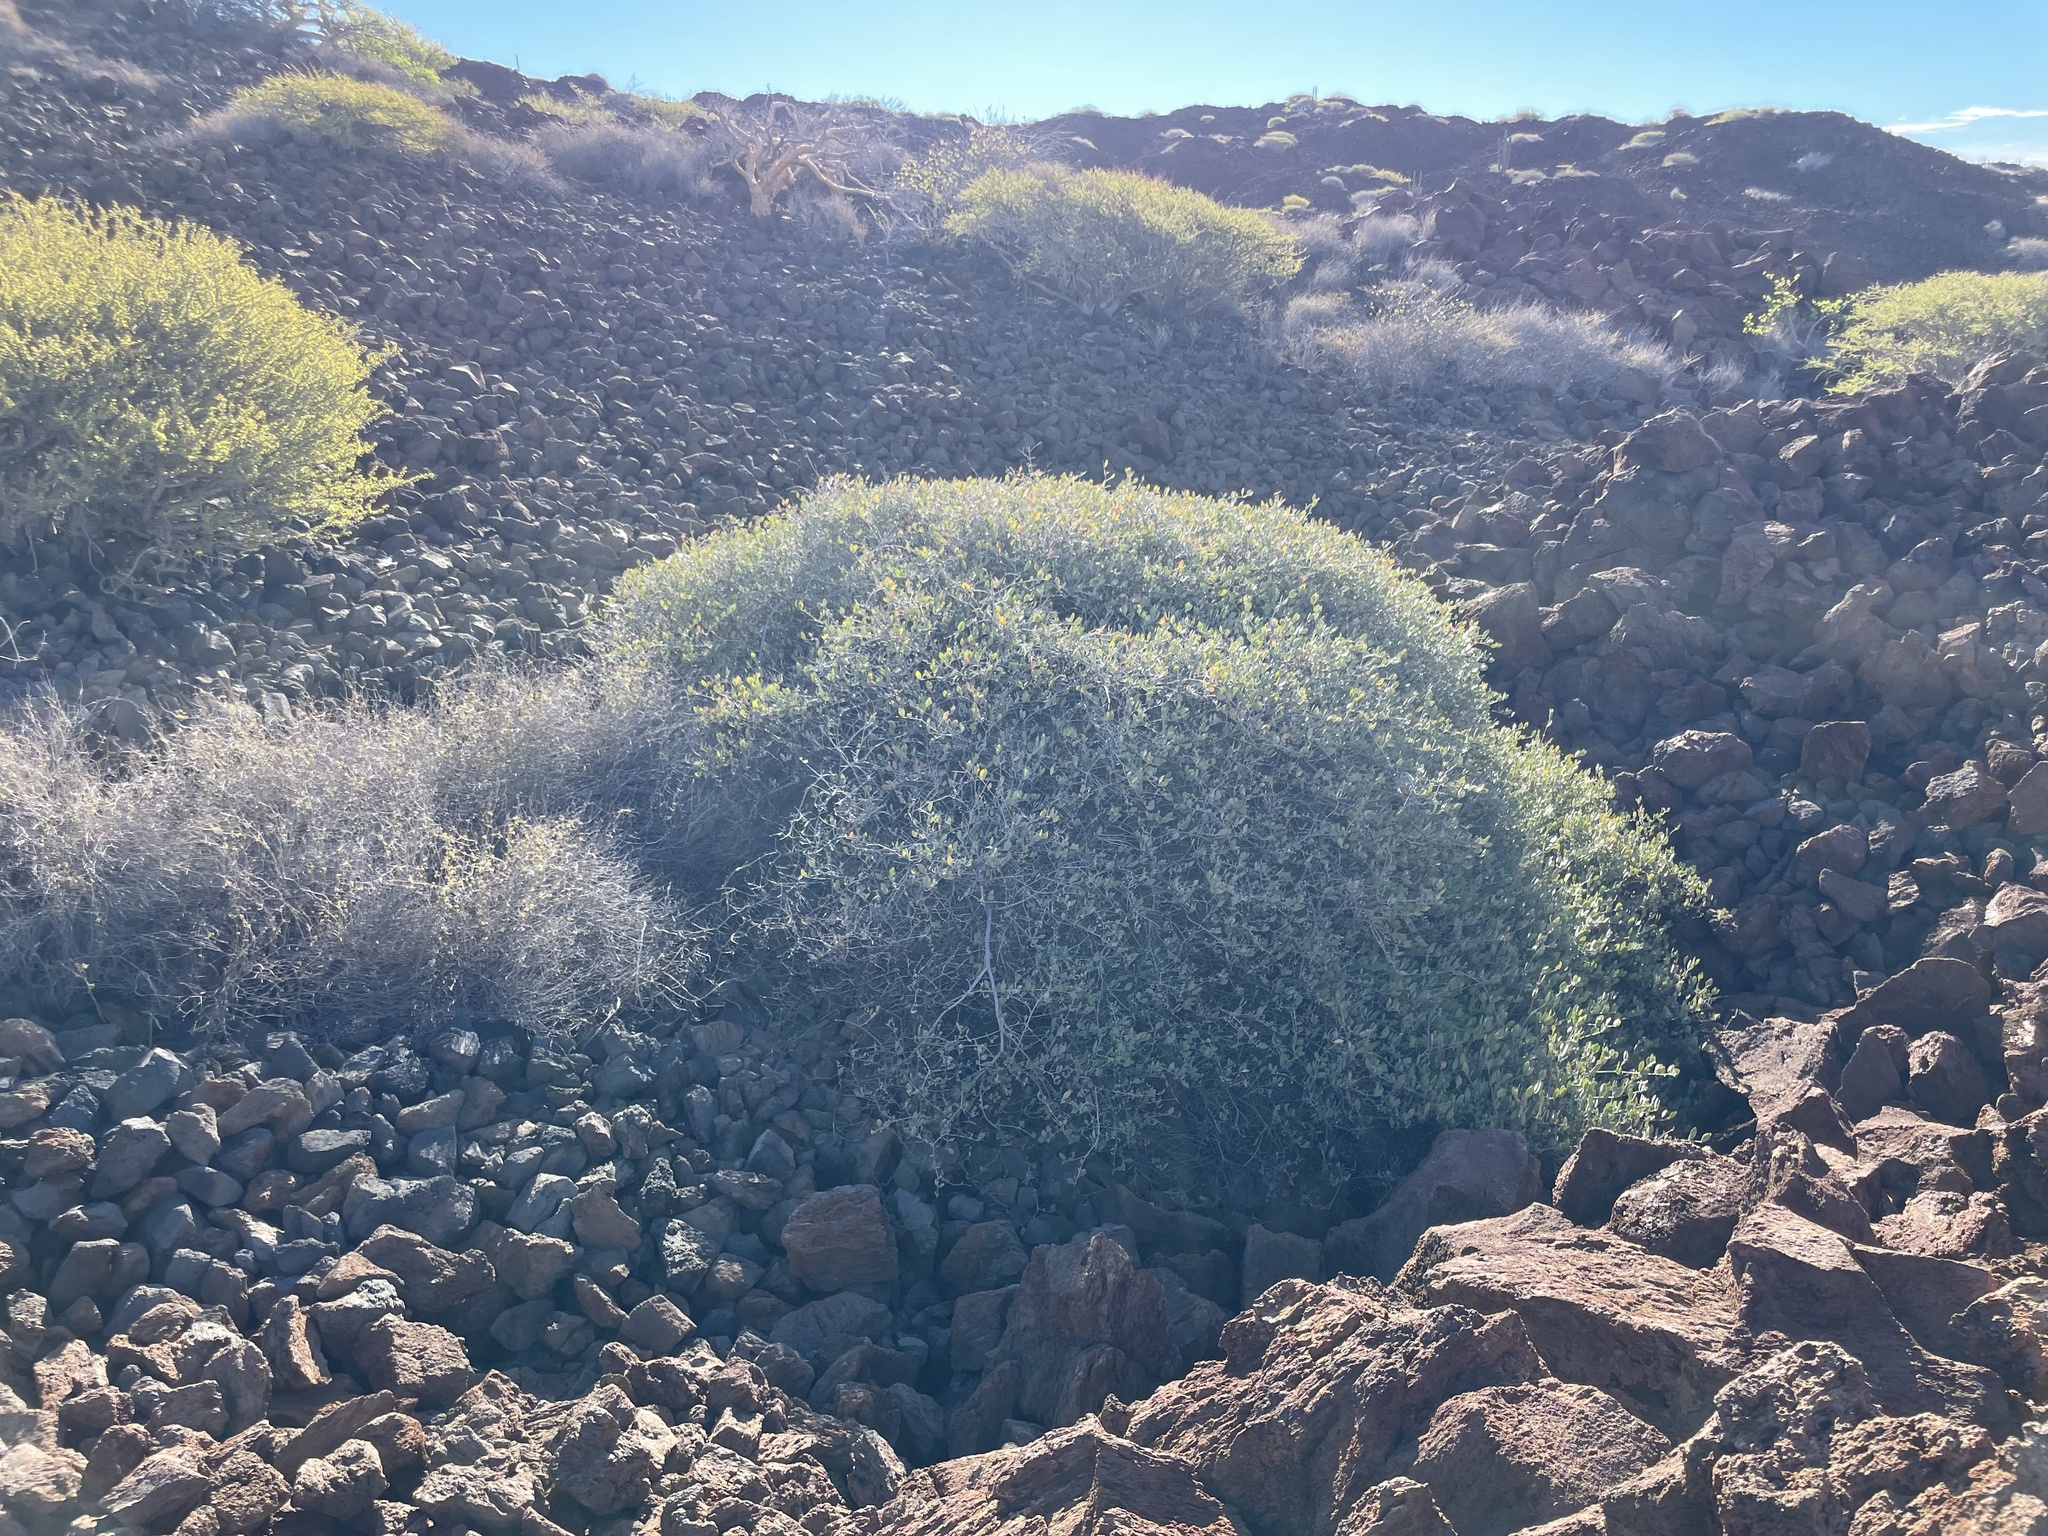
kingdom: Plantae
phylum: Tracheophyta
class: Magnoliopsida
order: Caryophyllales
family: Simmondsiaceae
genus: Simmondsia
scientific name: Simmondsia chinensis
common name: Jojoba
